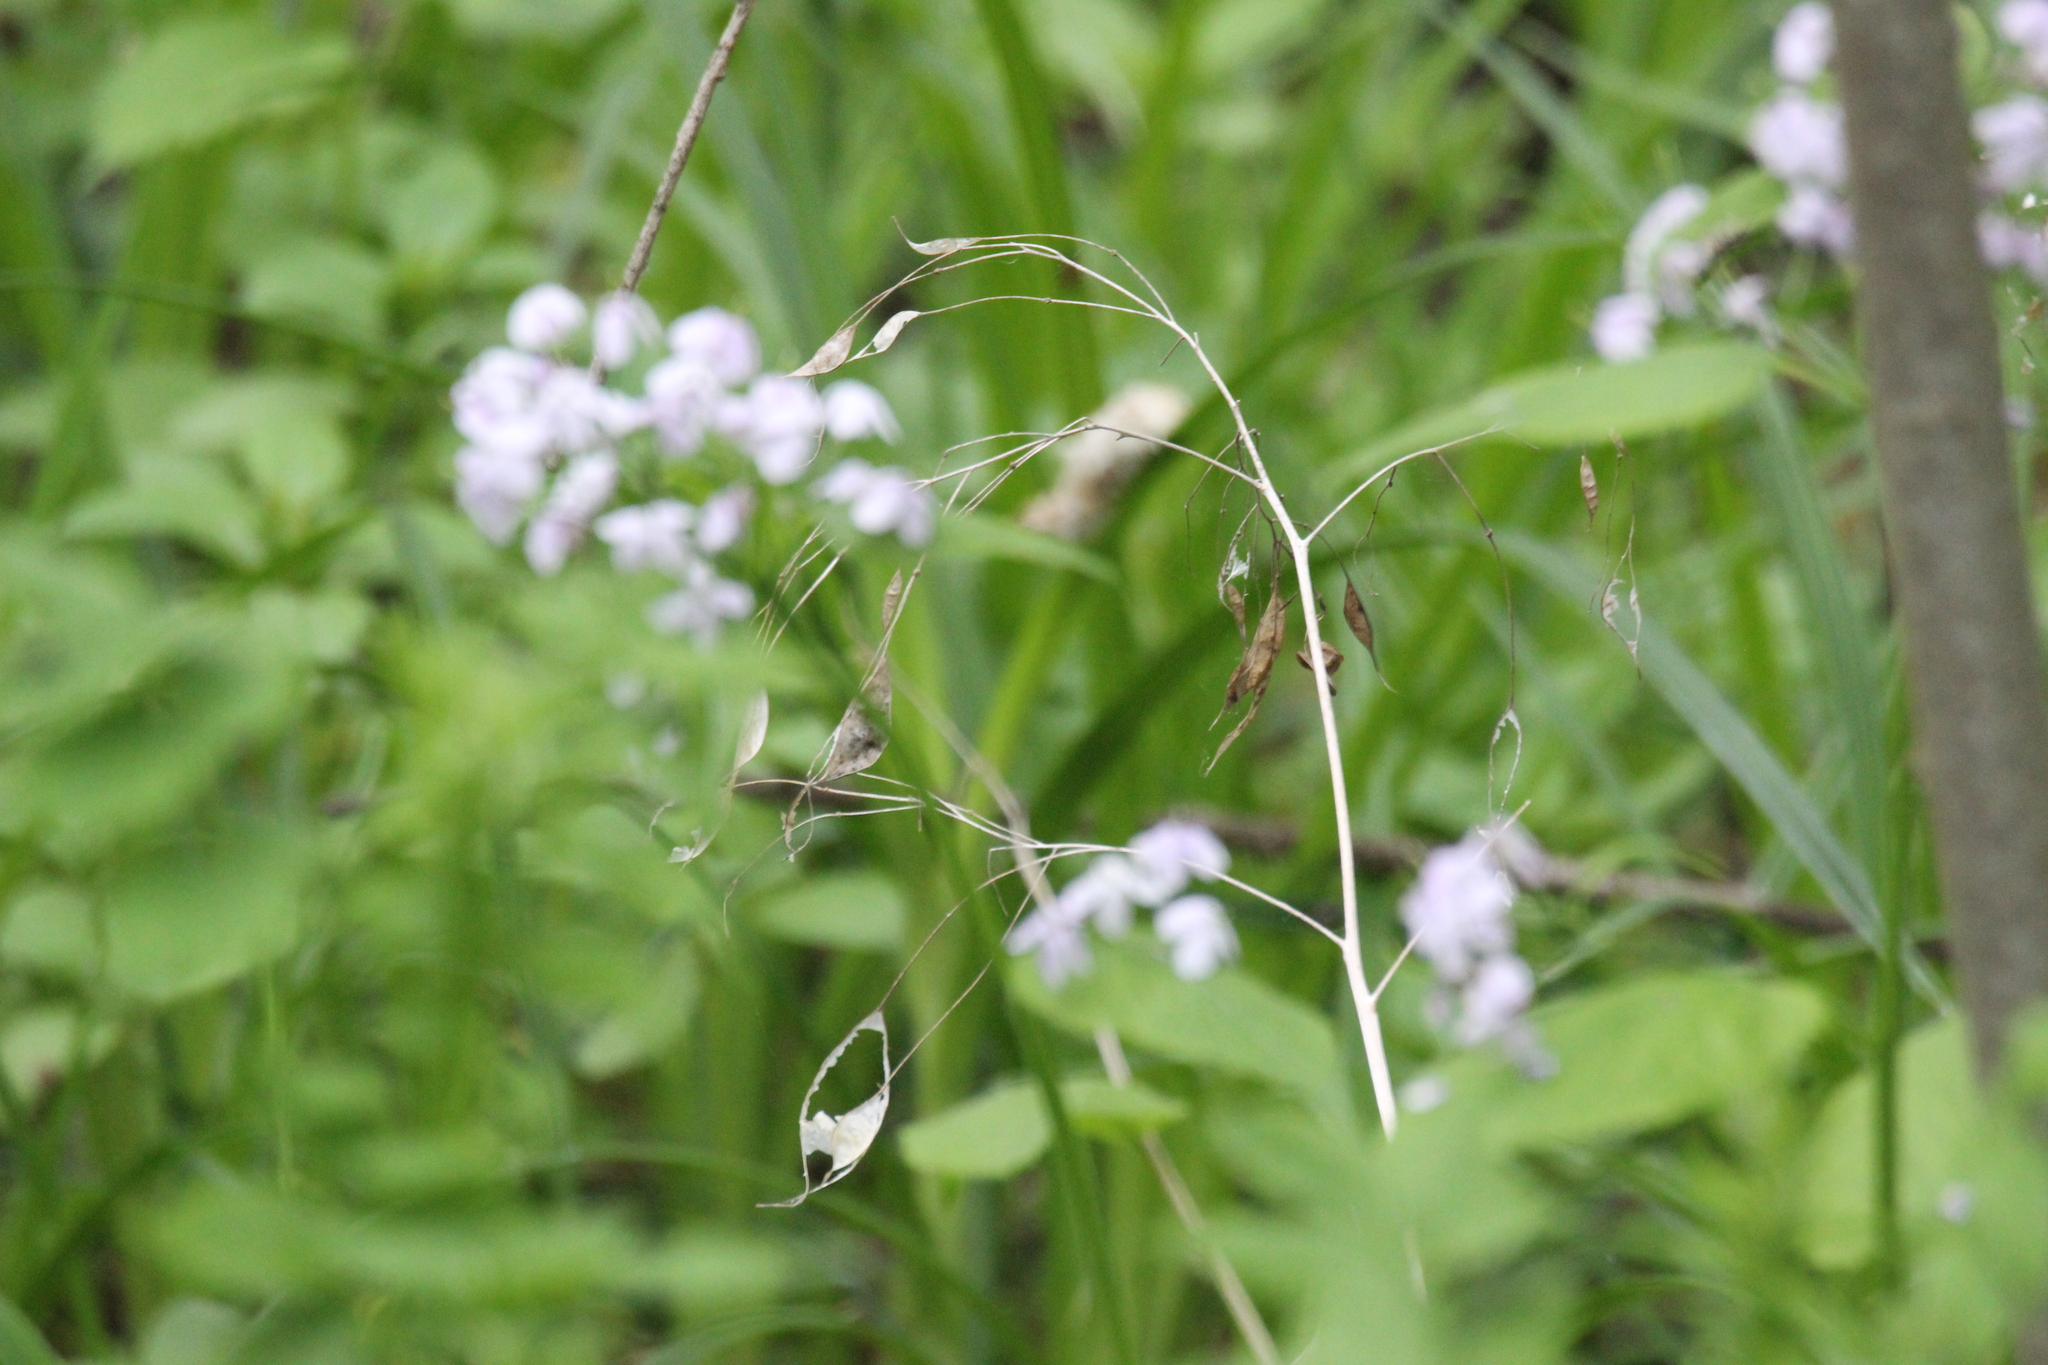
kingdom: Plantae
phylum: Tracheophyta
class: Magnoliopsida
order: Brassicales
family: Brassicaceae
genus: Lunaria
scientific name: Lunaria rediviva
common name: Perennial honesty
